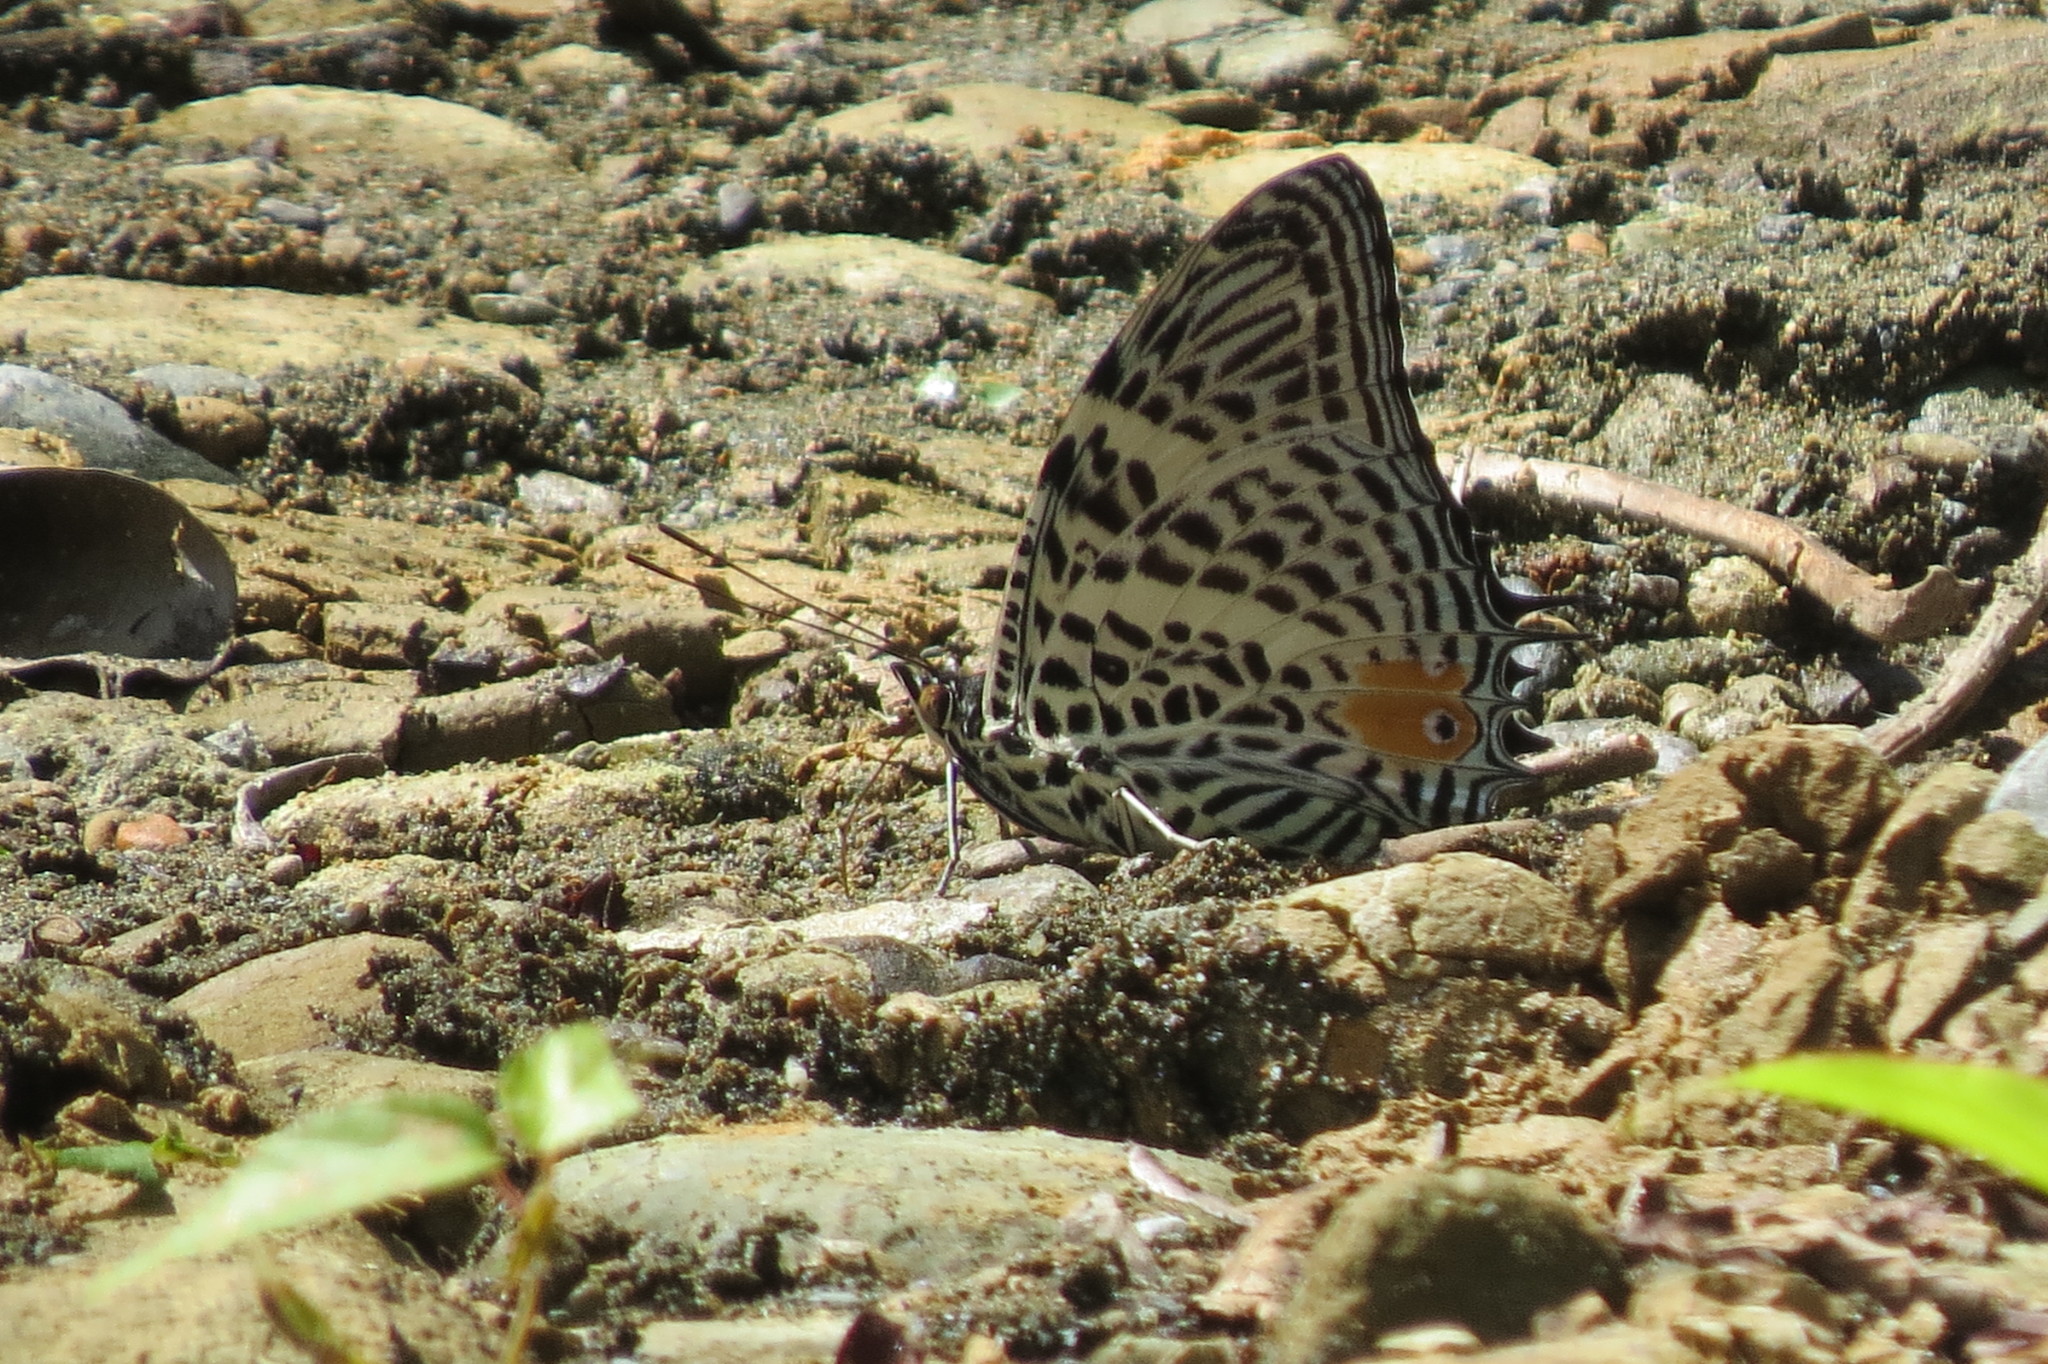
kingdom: Animalia
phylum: Arthropoda
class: Insecta
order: Lepidoptera
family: Nymphalidae
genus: Baeotus
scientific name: Baeotus beotus
